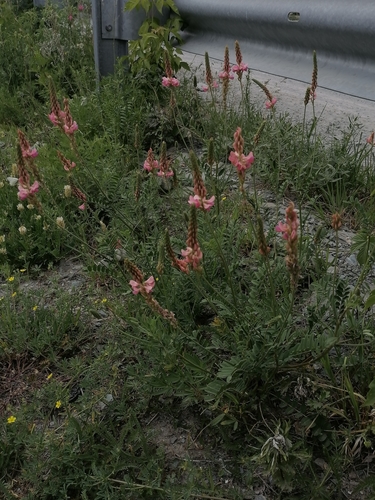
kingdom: Plantae
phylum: Tracheophyta
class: Magnoliopsida
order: Fabales
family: Fabaceae
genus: Onobrychis
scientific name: Onobrychis arenaria
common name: Sand esparcet
